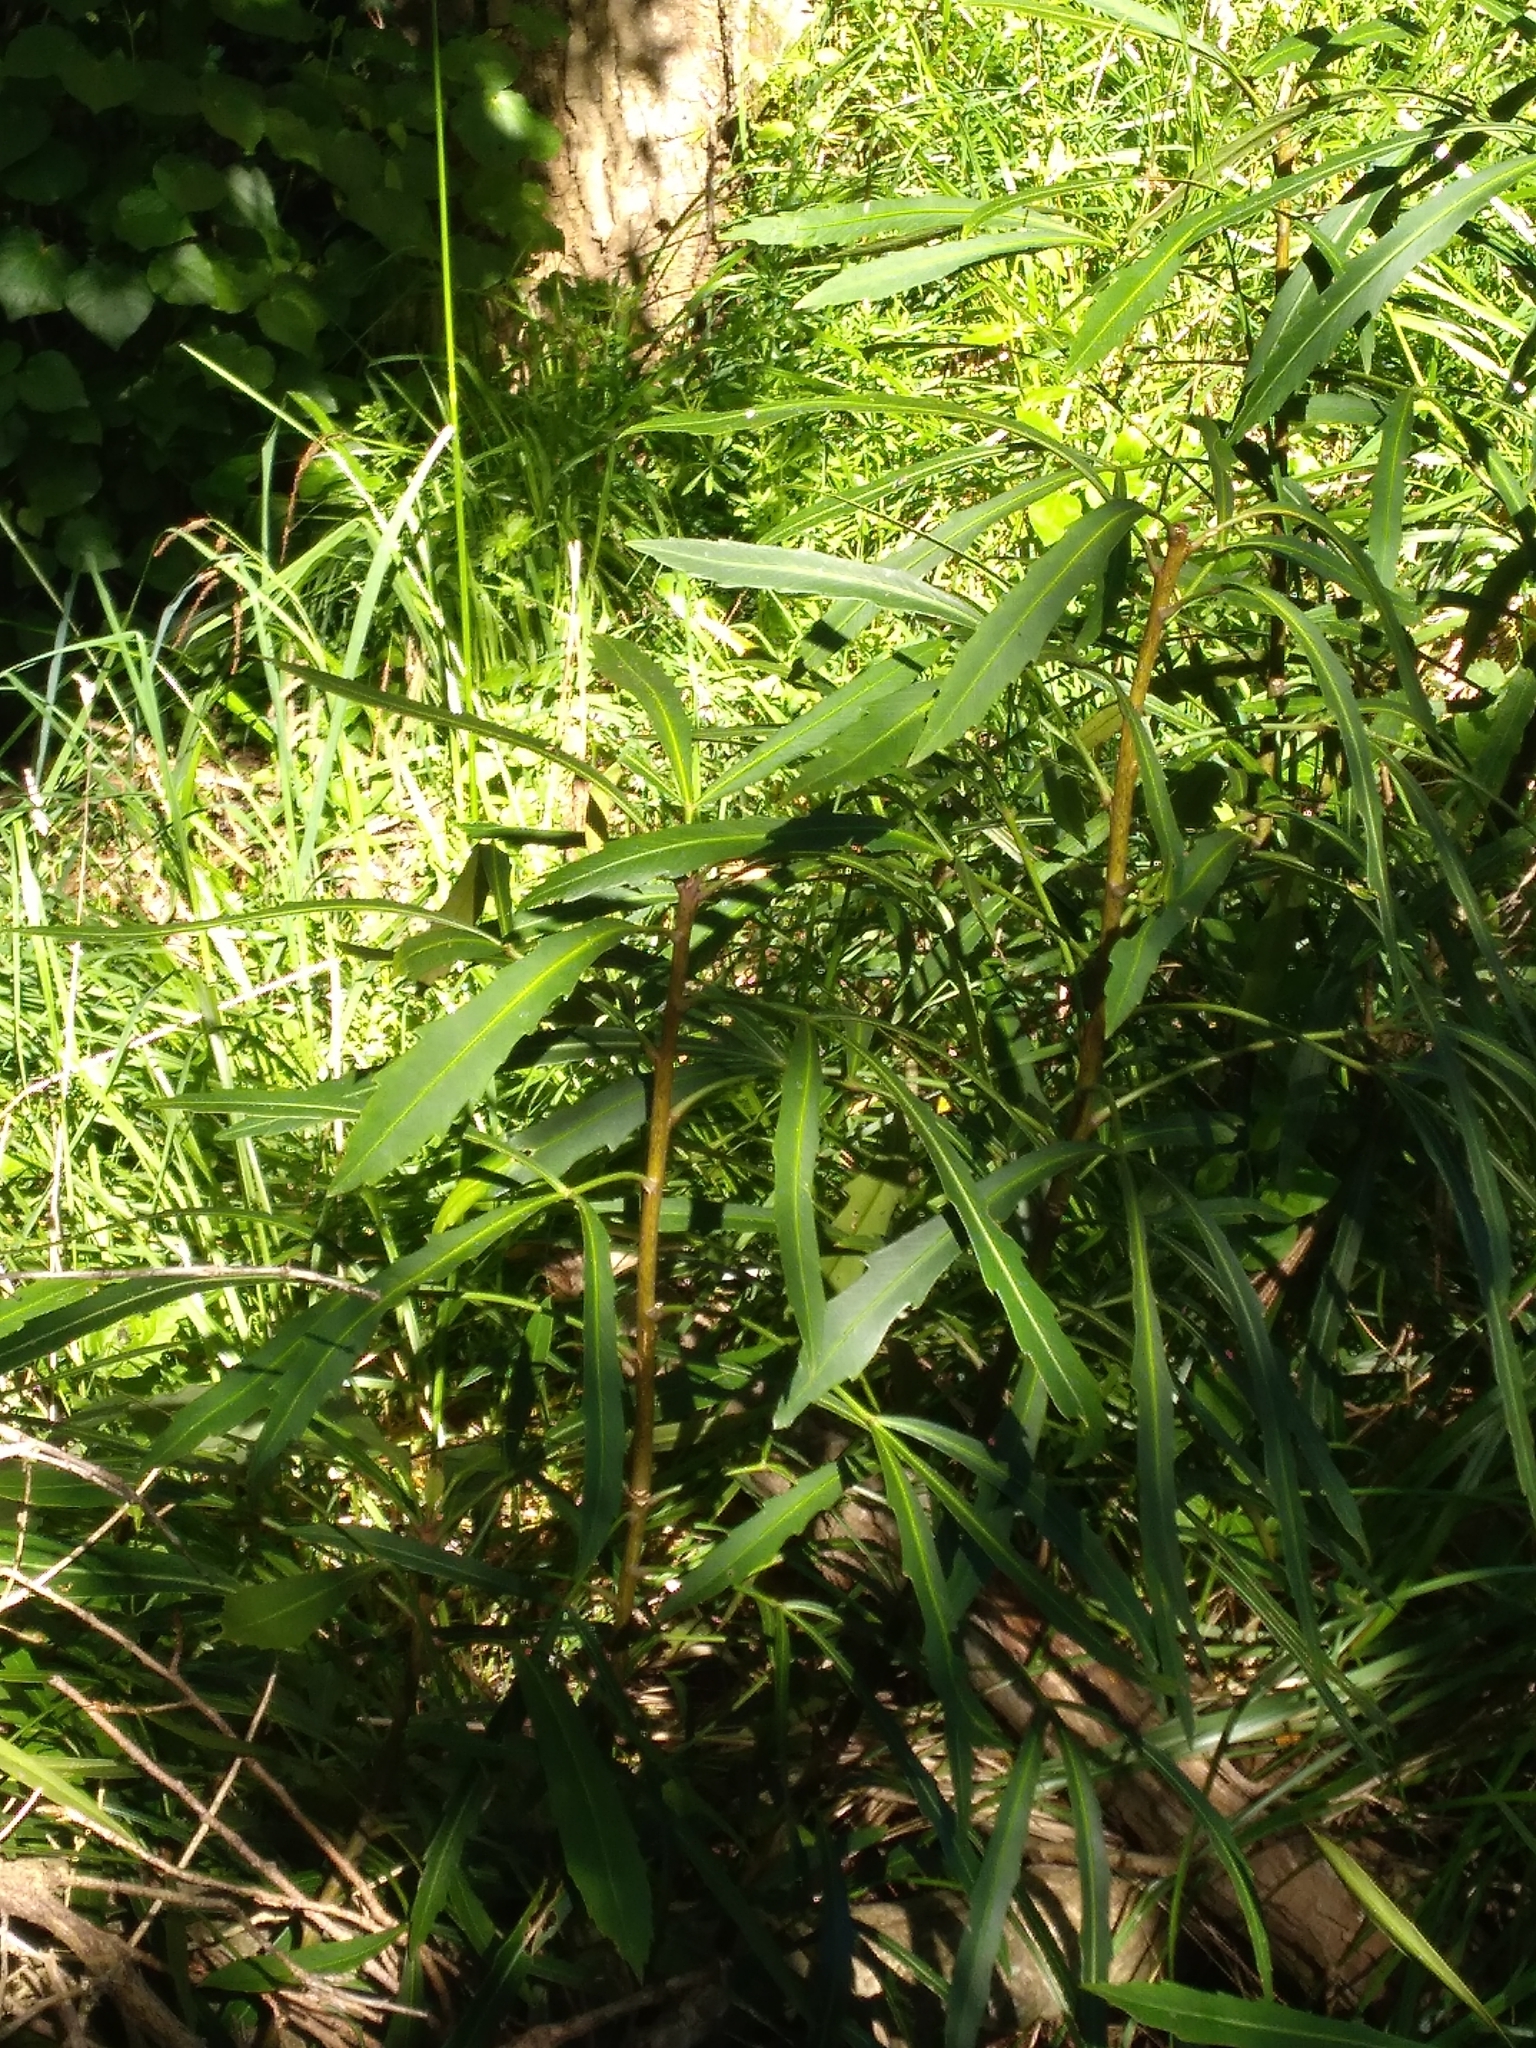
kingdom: Plantae
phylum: Tracheophyta
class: Magnoliopsida
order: Apiales
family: Araliaceae
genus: Pseudopanax
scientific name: Pseudopanax
